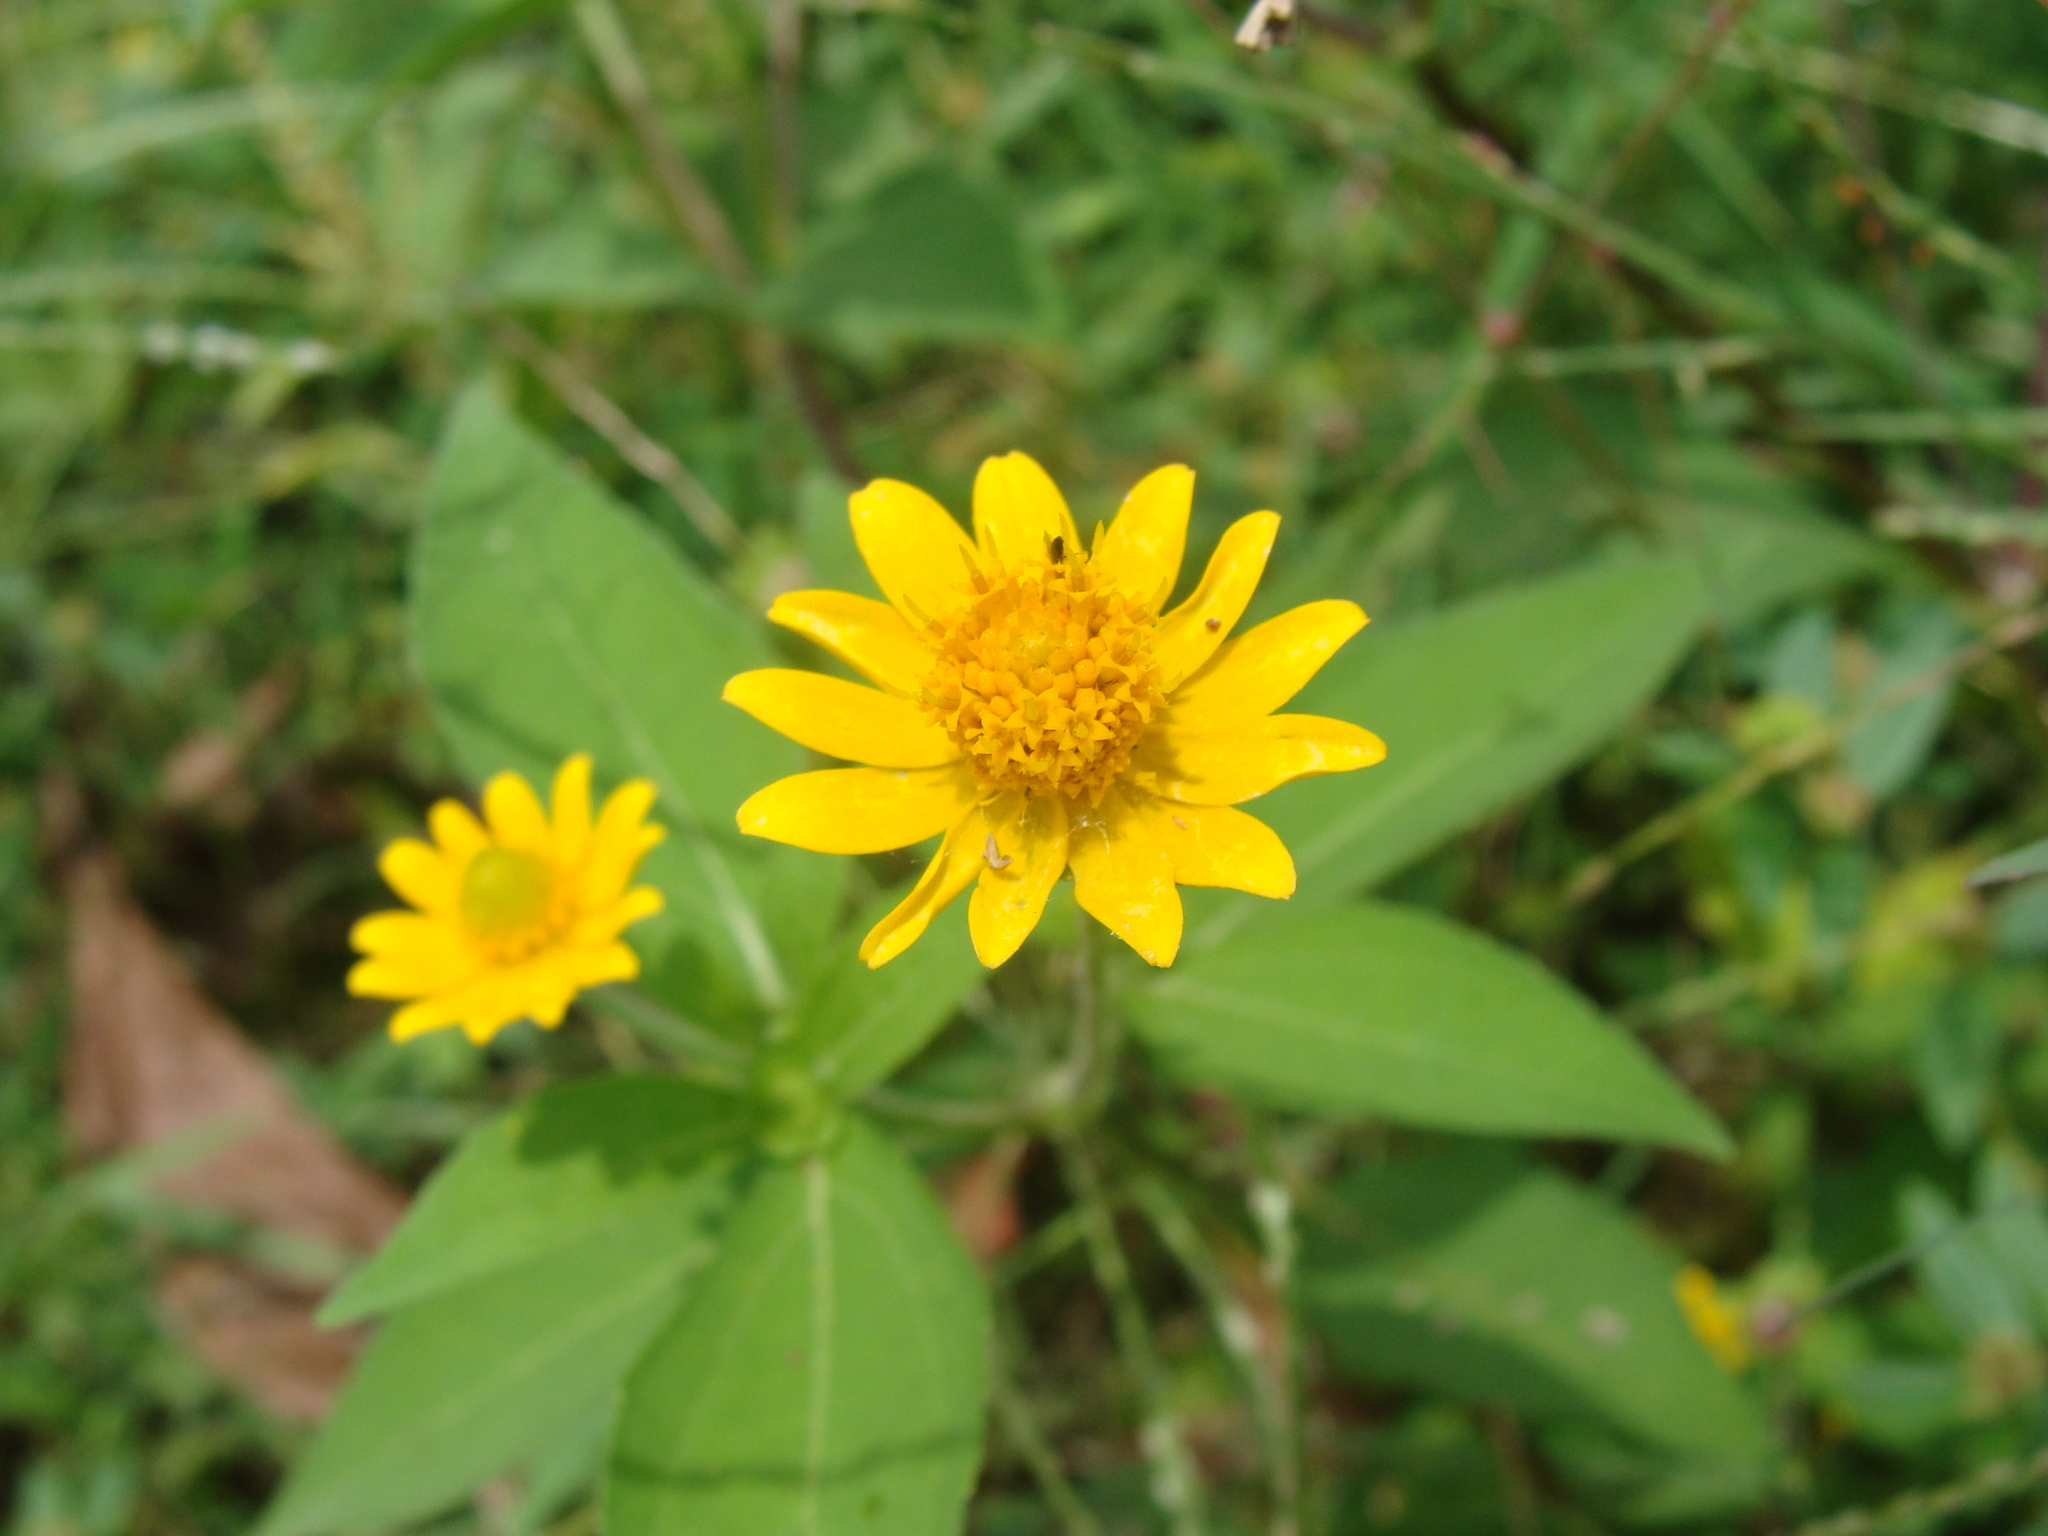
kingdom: Plantae
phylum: Tracheophyta
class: Magnoliopsida
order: Asterales
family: Asteraceae
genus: Melampodium
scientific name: Melampodium divaricatum
